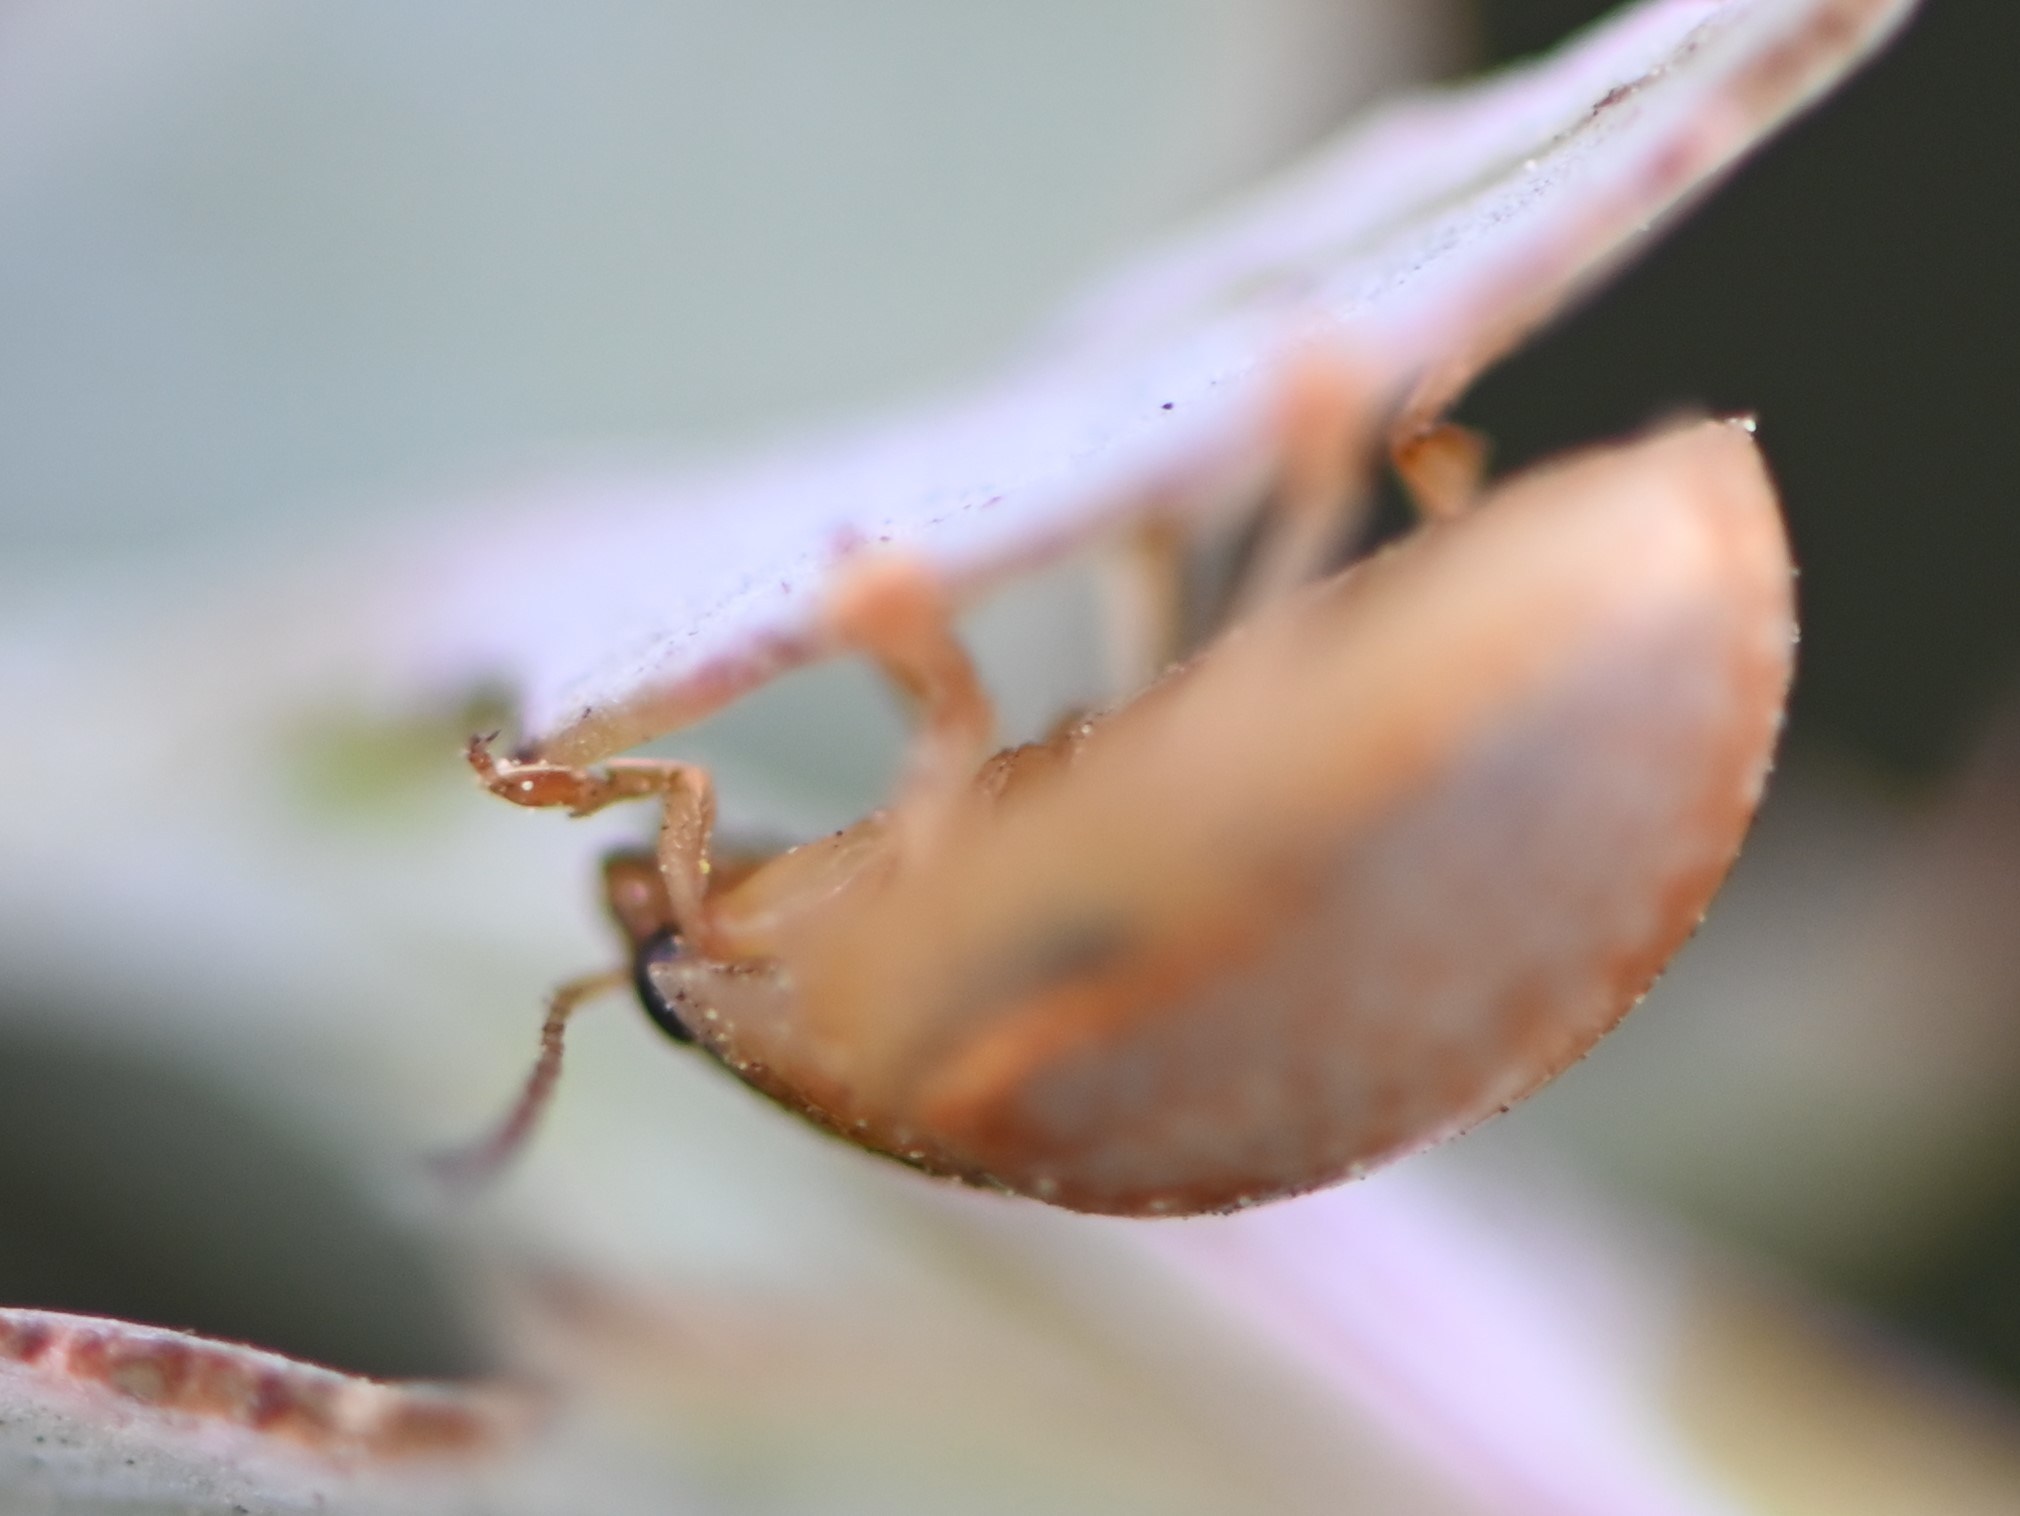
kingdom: Animalia
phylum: Arthropoda
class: Insecta
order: Coleoptera
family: Chrysomelidae
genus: Paropsisterna
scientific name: Paropsisterna m-fuscum
